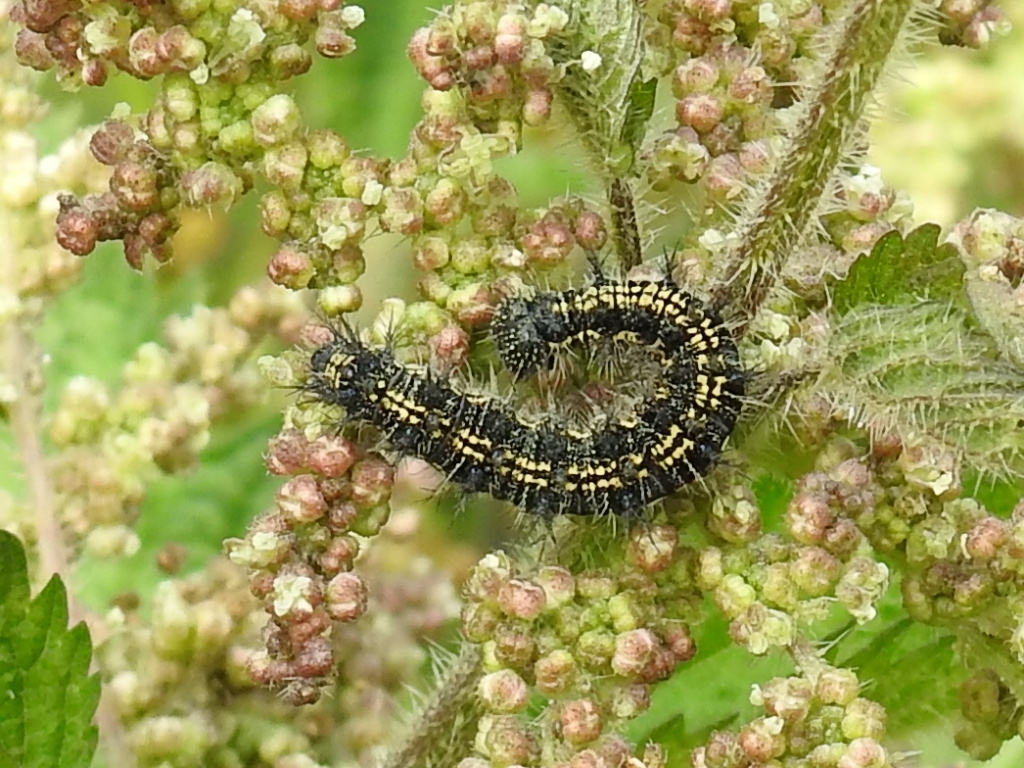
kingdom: Animalia
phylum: Arthropoda
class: Insecta
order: Lepidoptera
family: Nymphalidae
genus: Aglais
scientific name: Aglais urticae
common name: Small tortoiseshell
